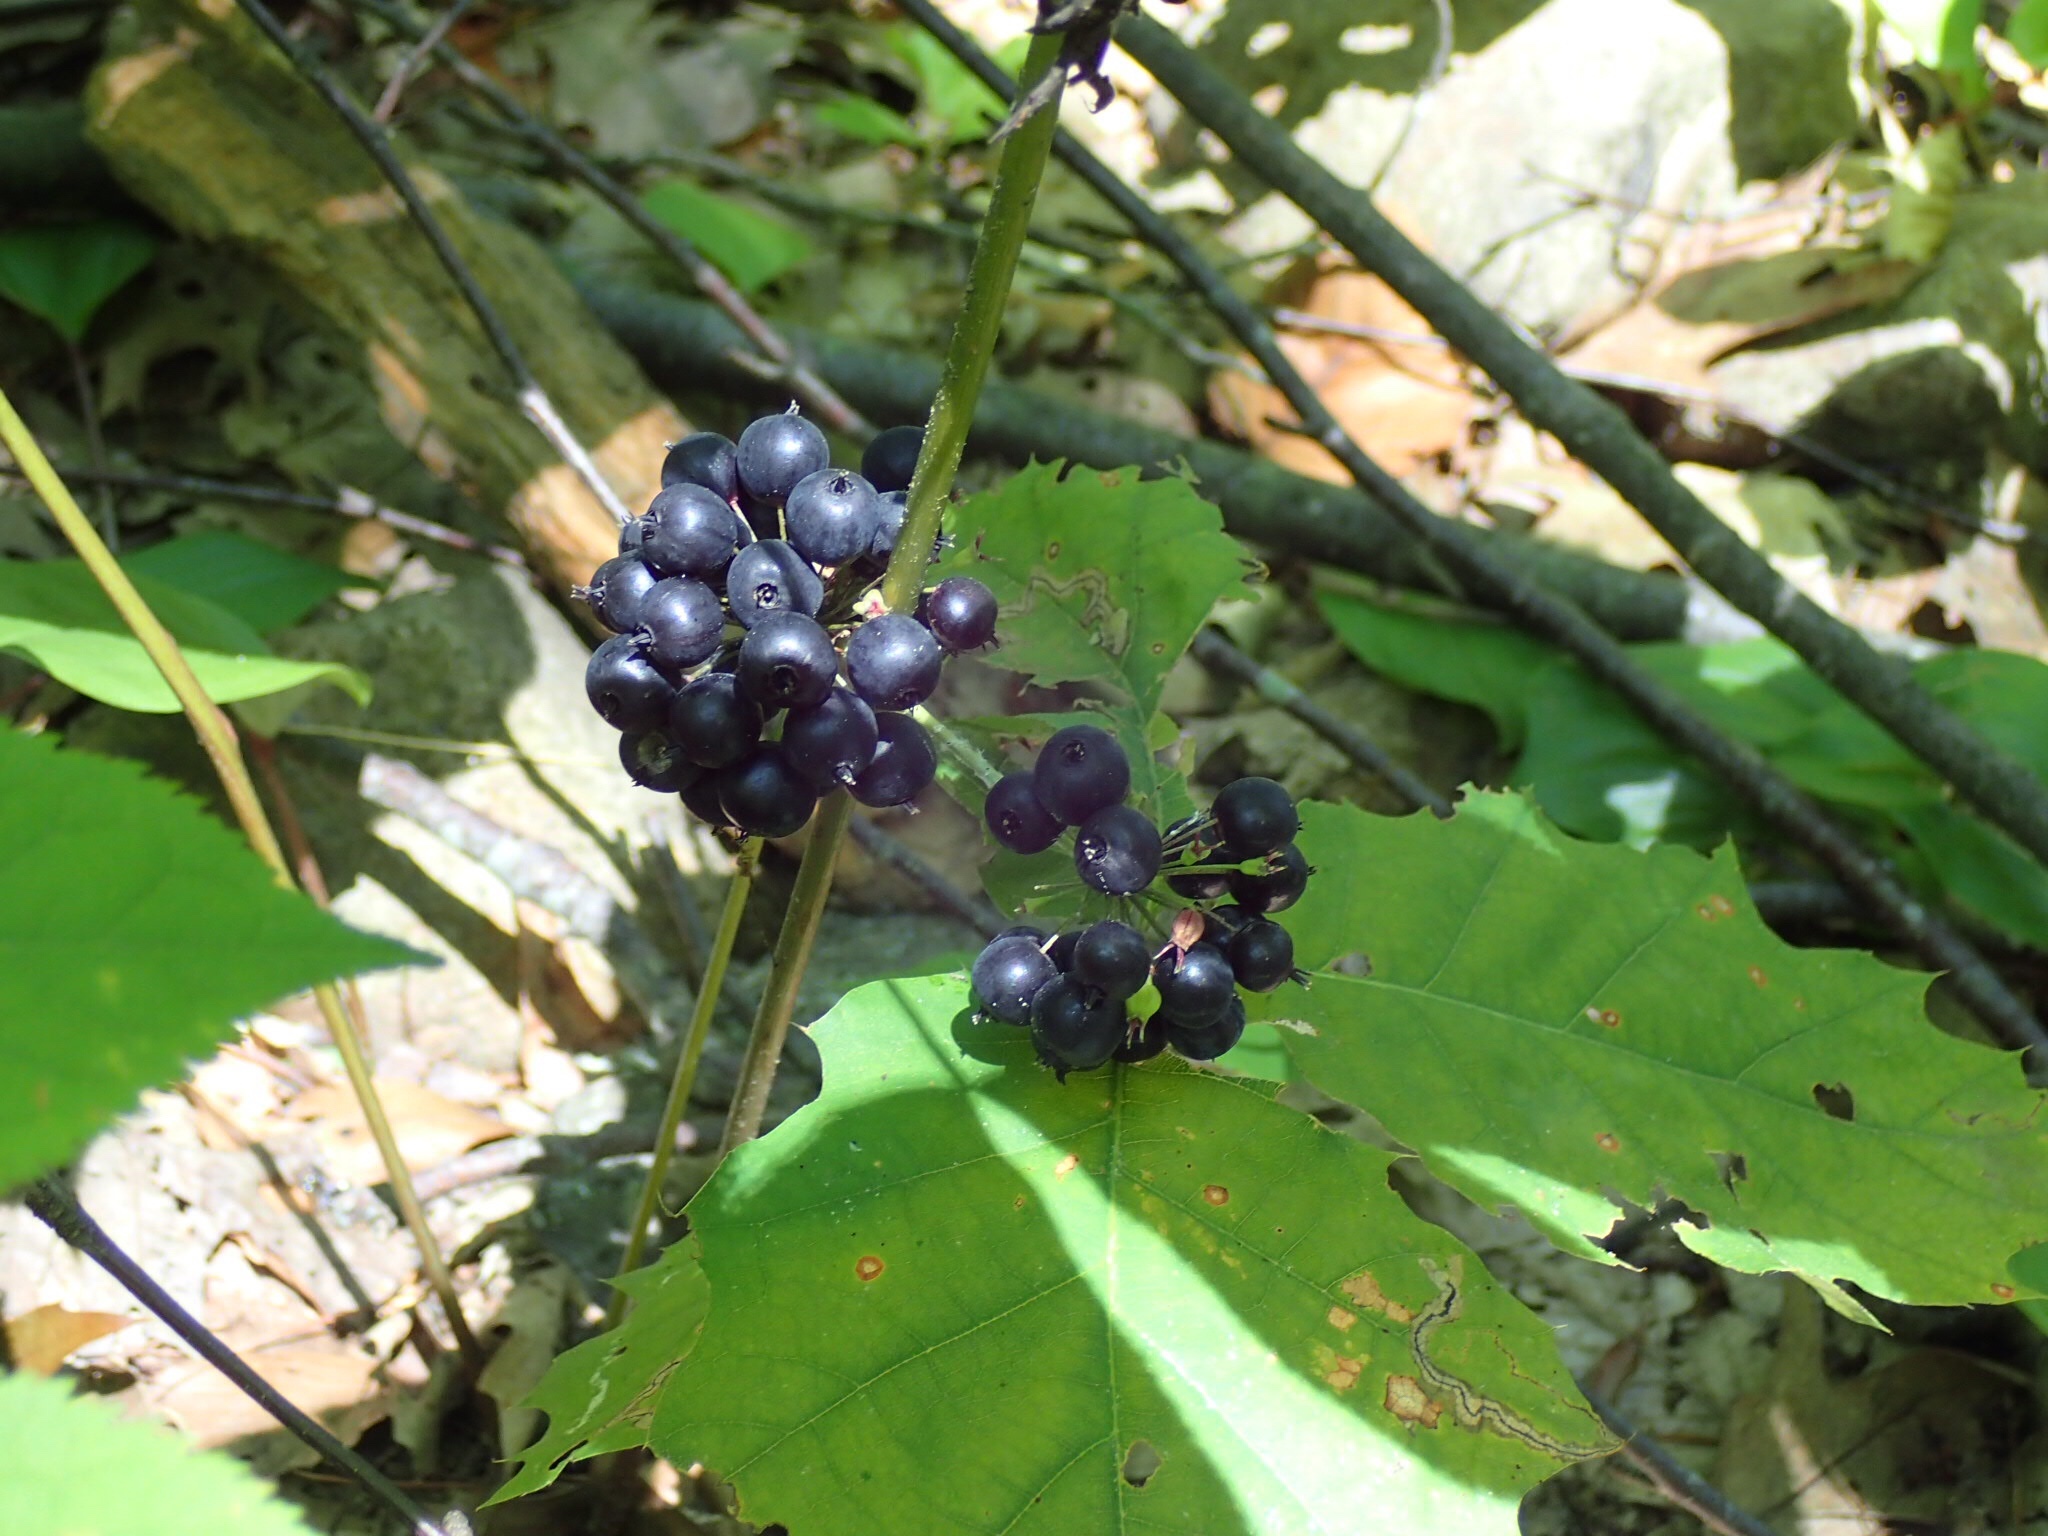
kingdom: Plantae
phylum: Tracheophyta
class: Magnoliopsida
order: Apiales
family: Araliaceae
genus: Aralia
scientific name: Aralia nudicaulis
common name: Wild sarsaparilla
